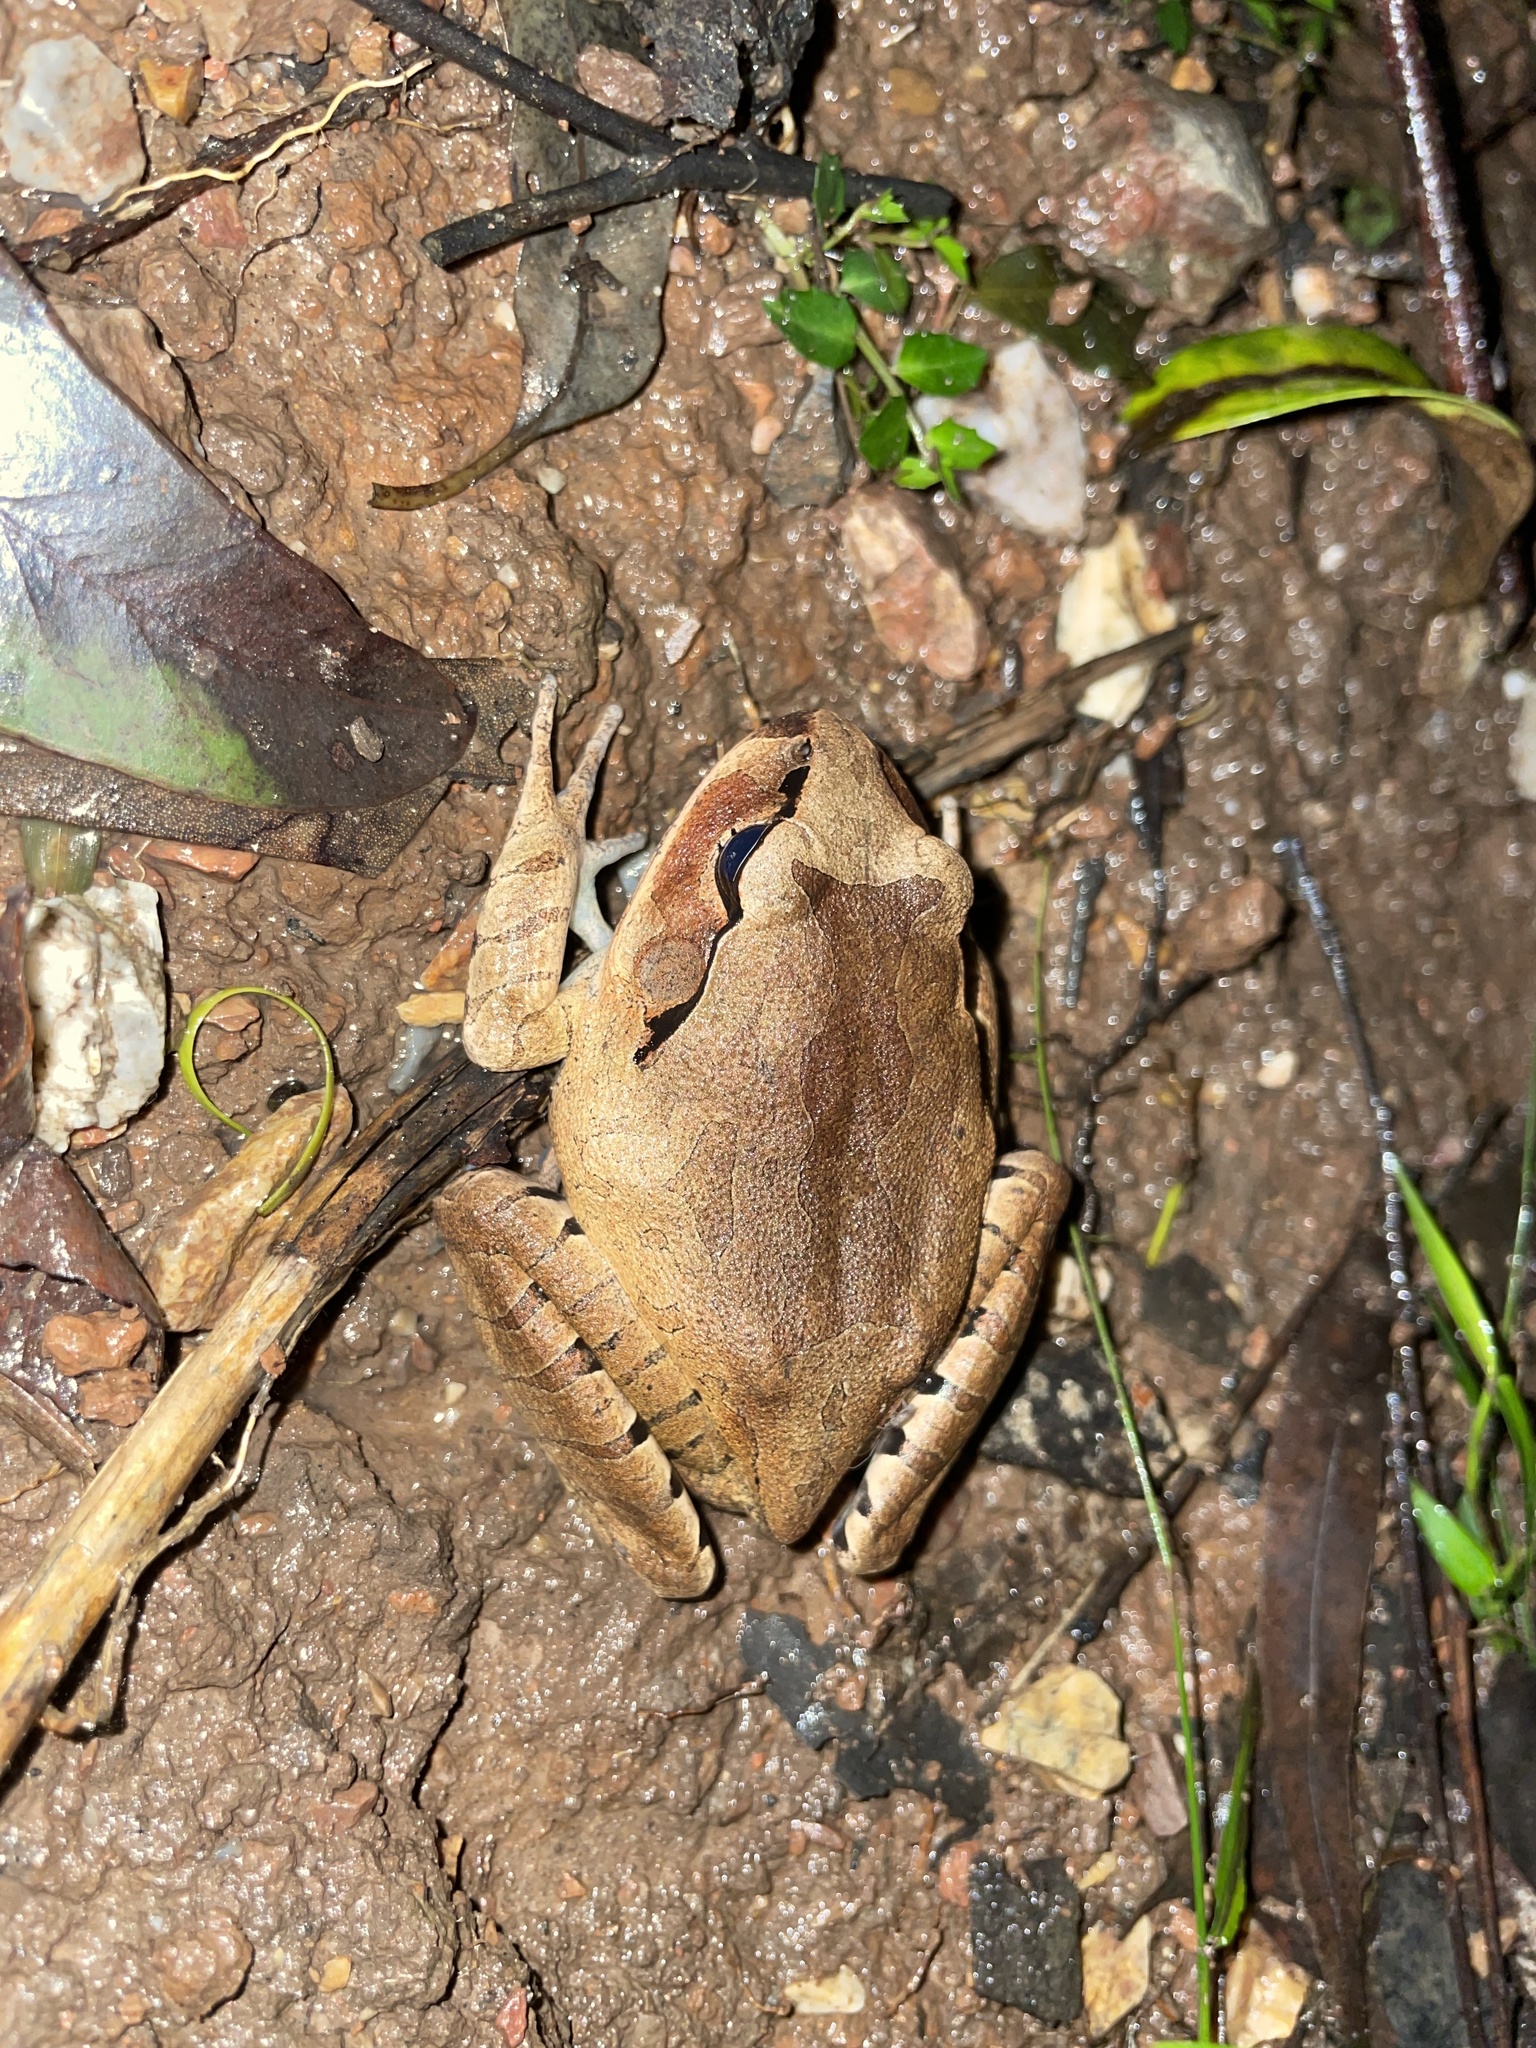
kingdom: Animalia
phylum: Chordata
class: Amphibia
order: Anura
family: Myobatrachidae
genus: Mixophyes
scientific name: Mixophyes fasciolatus
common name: Great barred river-frog
